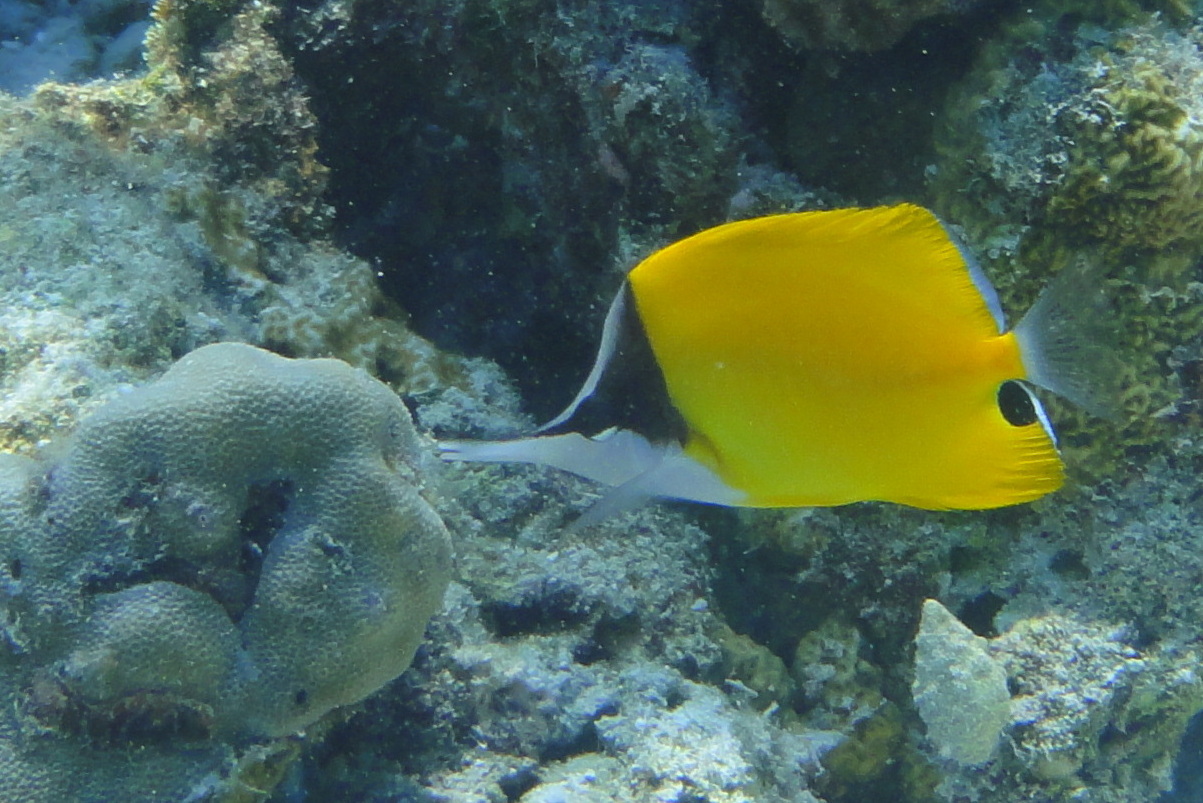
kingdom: Animalia
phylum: Chordata
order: Perciformes
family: Chaetodontidae
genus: Forcipiger
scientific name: Forcipiger flavissimus
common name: Forcepsfish
